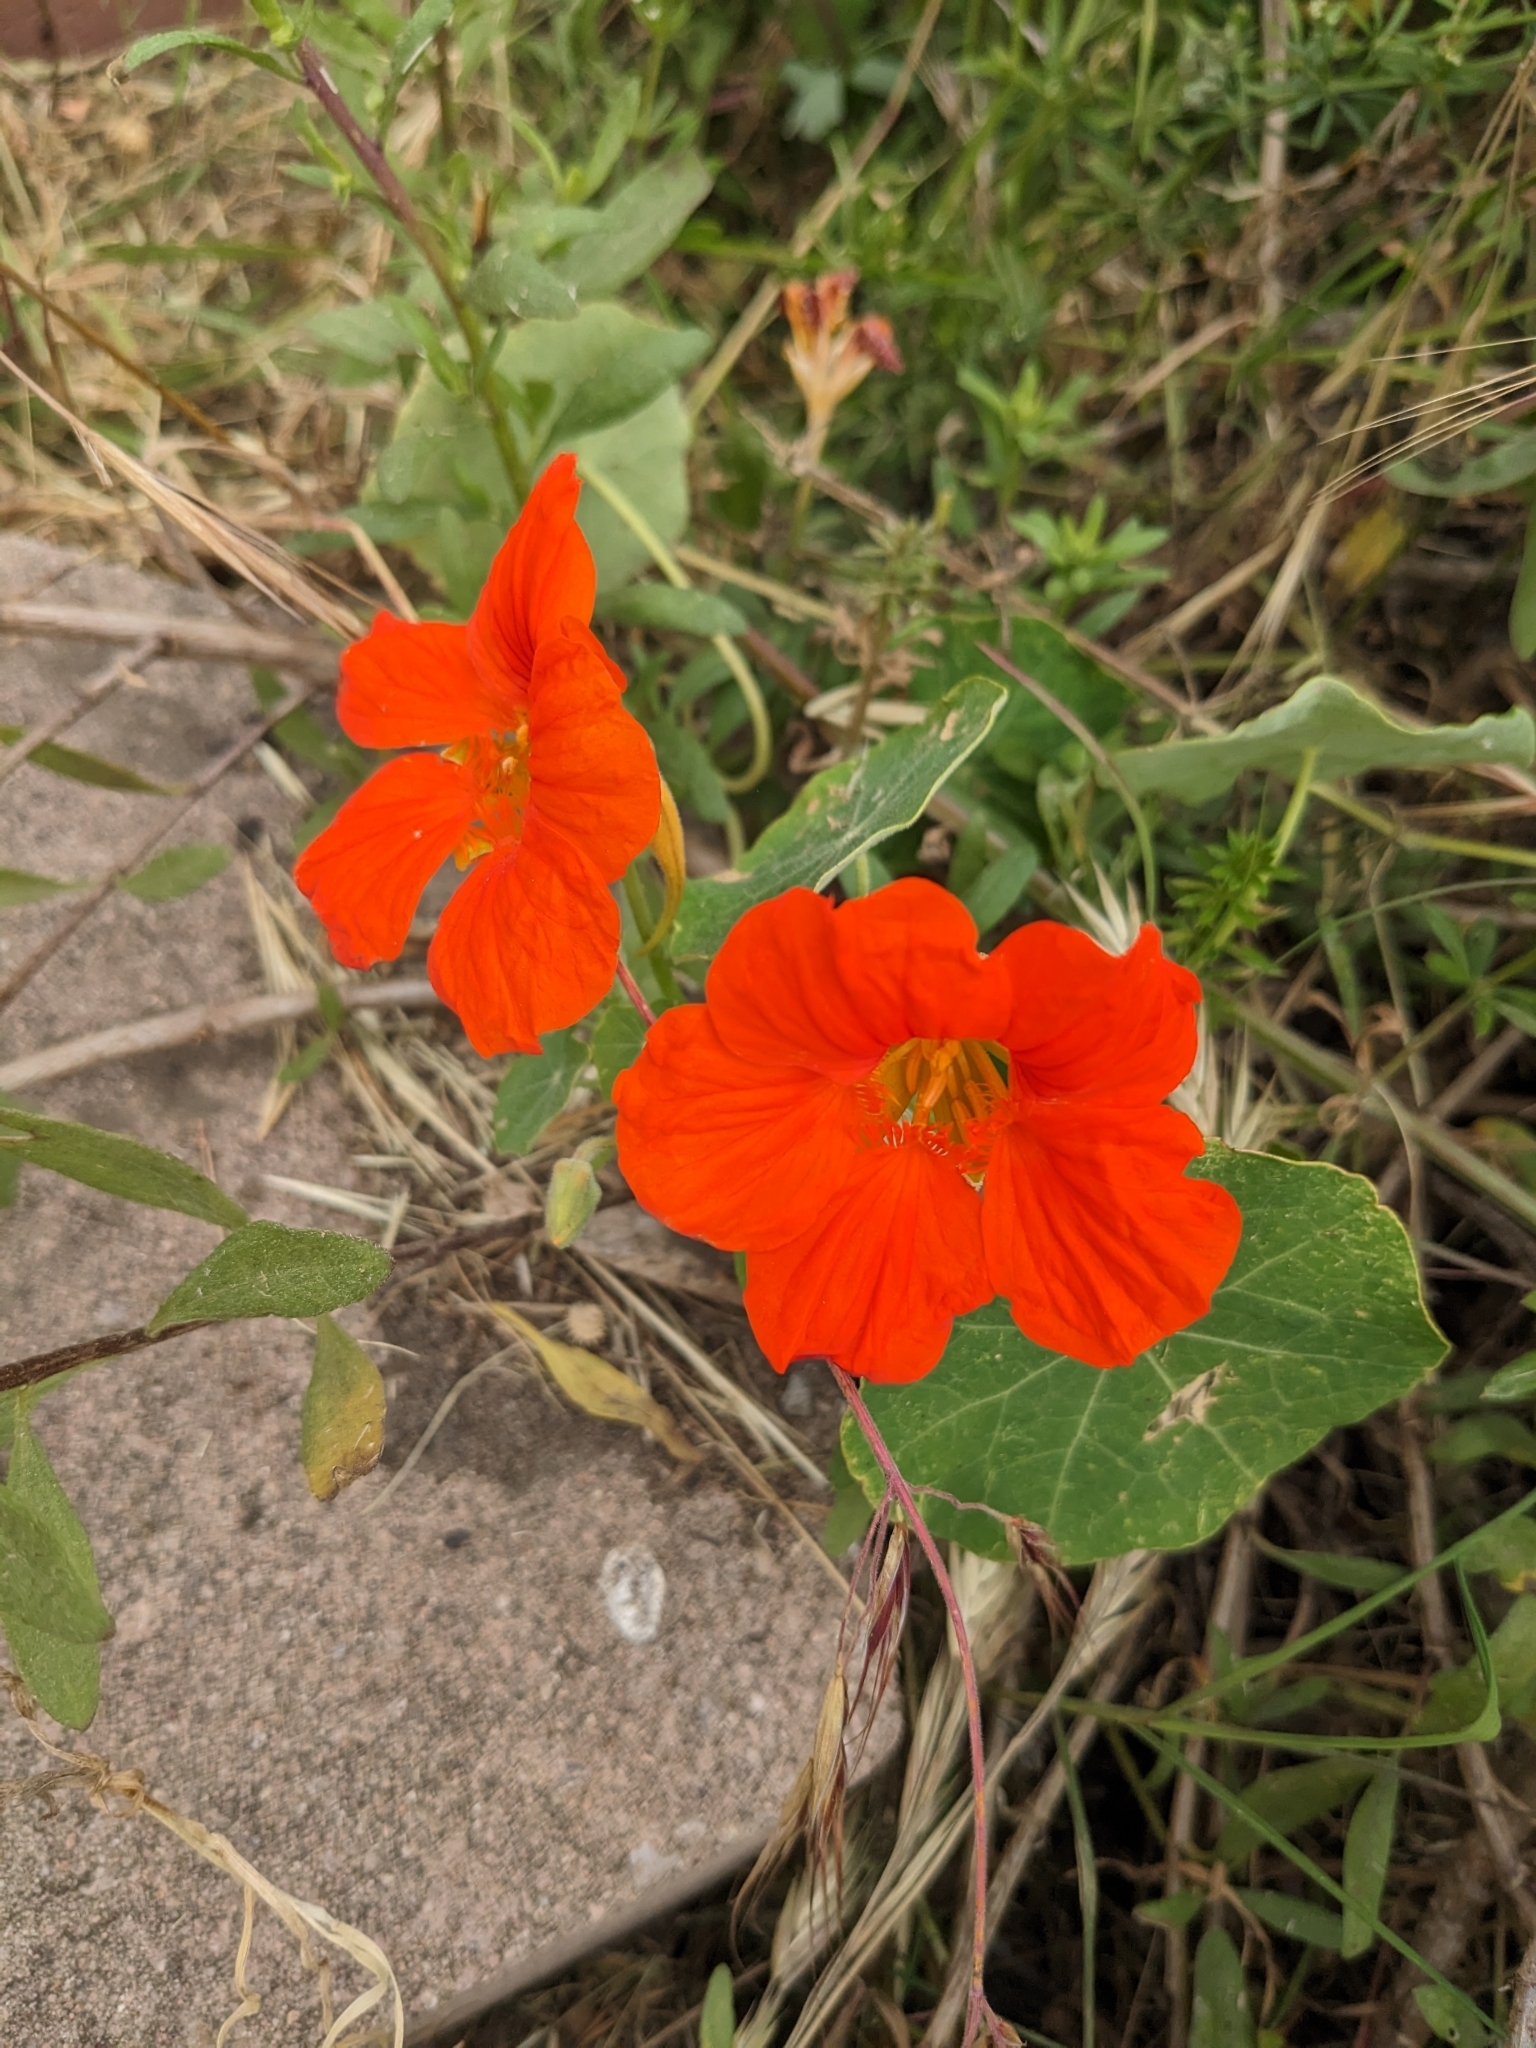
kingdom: Plantae
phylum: Tracheophyta
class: Magnoliopsida
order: Brassicales
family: Tropaeolaceae
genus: Tropaeolum
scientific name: Tropaeolum majus
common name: Nasturtium
